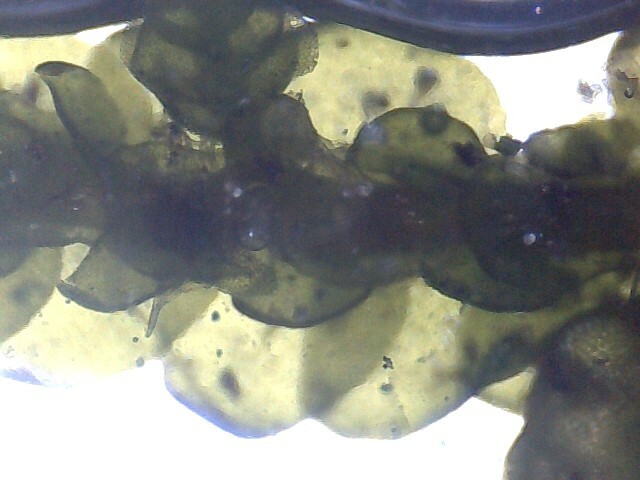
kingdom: Plantae
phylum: Marchantiophyta
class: Jungermanniopsida
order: Porellales
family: Porellaceae
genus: Porella
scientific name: Porella platyphylla
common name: Wall scalewort
